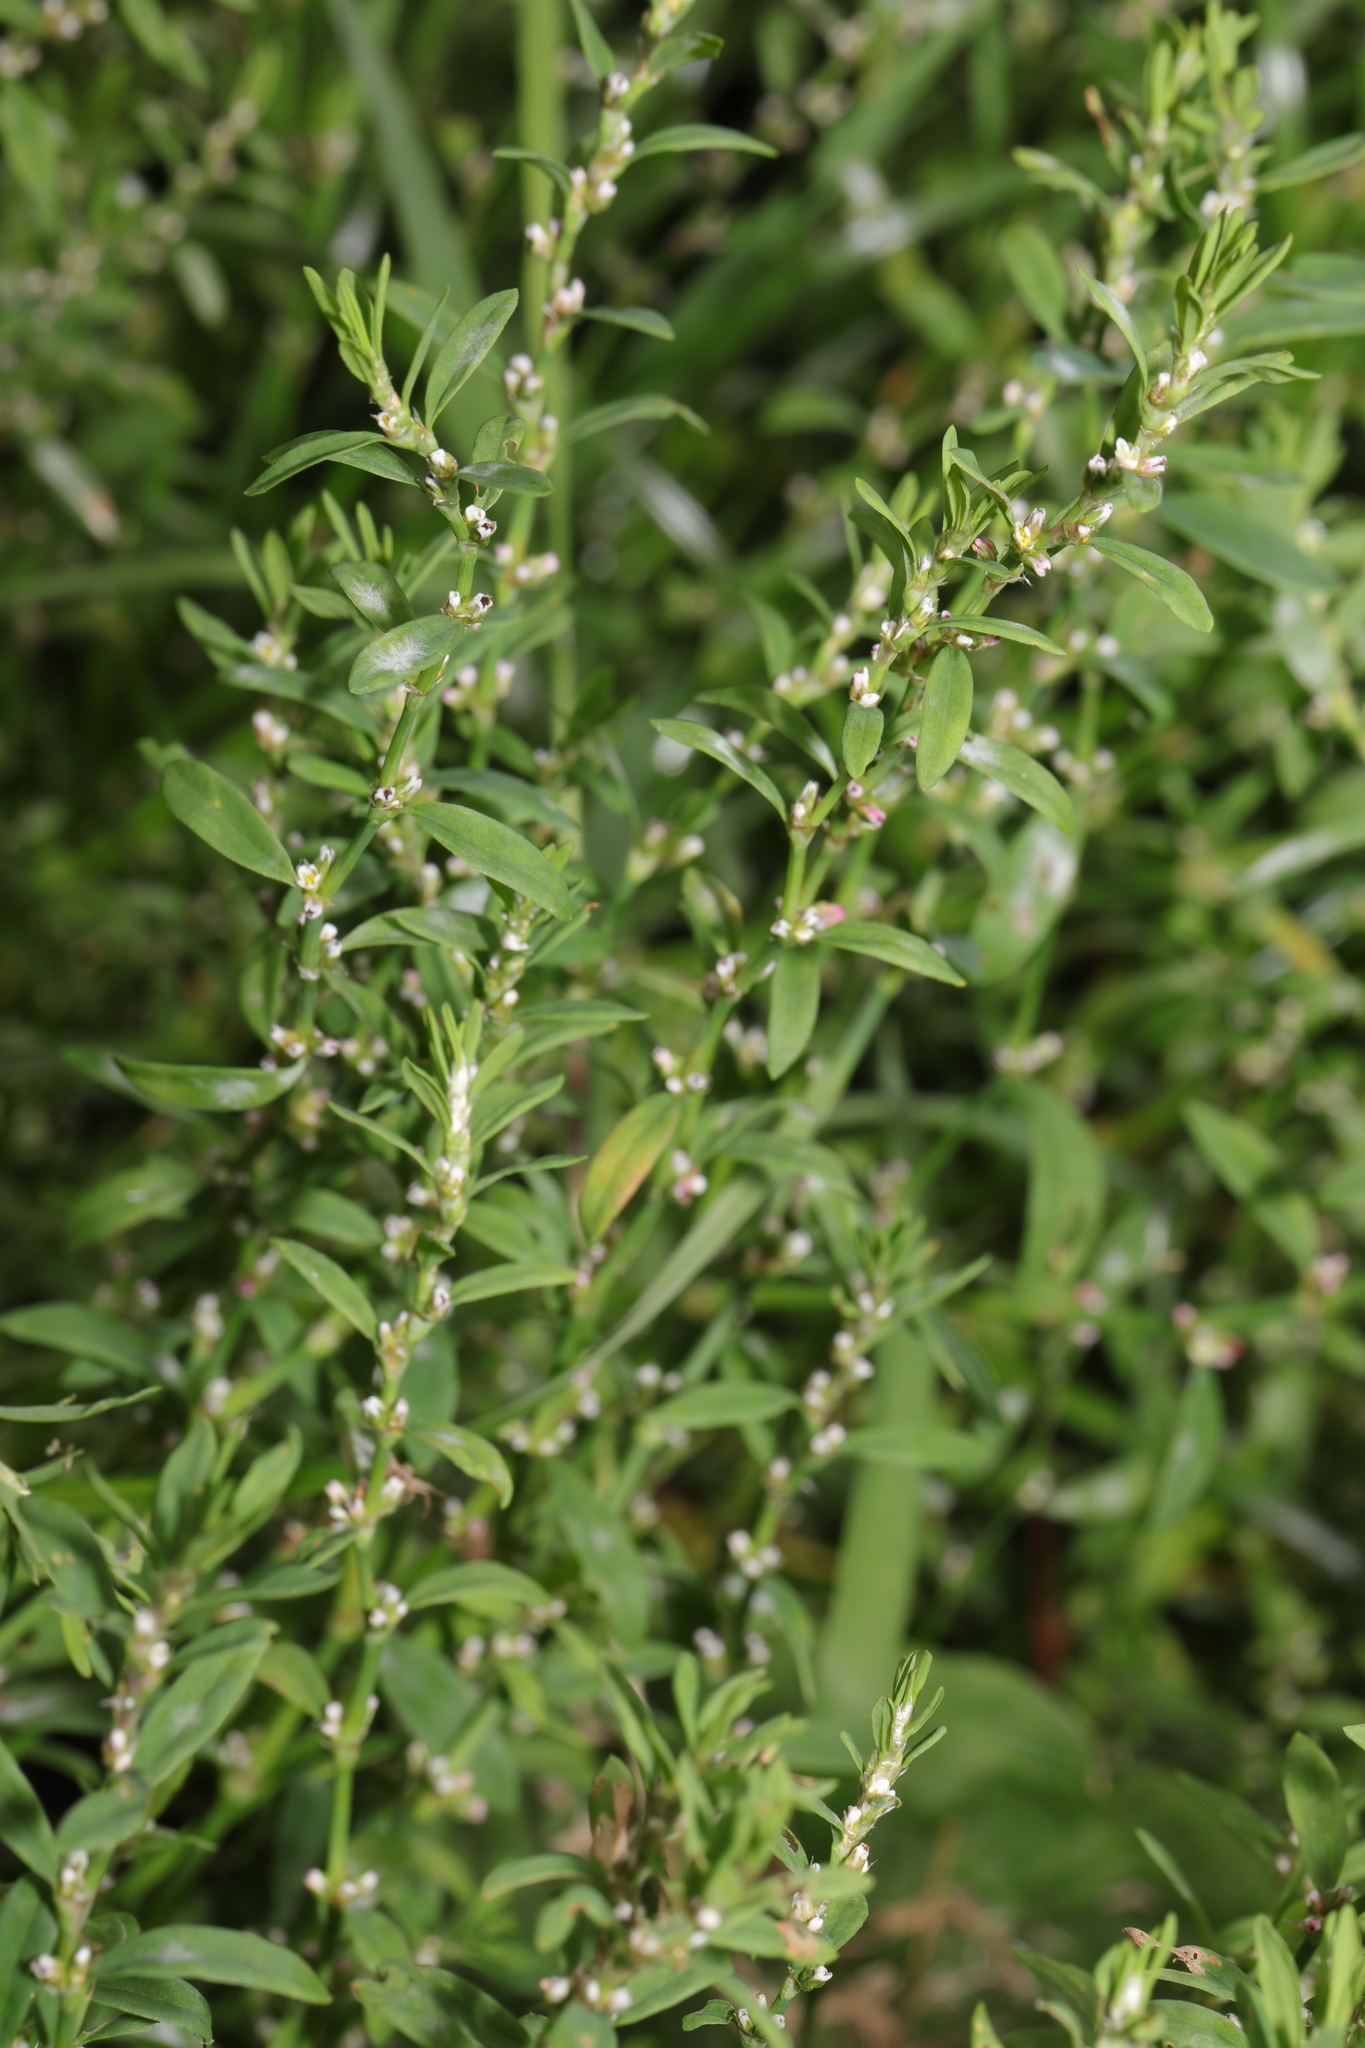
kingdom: Plantae
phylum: Tracheophyta
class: Magnoliopsida
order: Caryophyllales
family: Polygonaceae
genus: Polygonum
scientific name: Polygonum aviculare
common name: Prostrate knotweed
